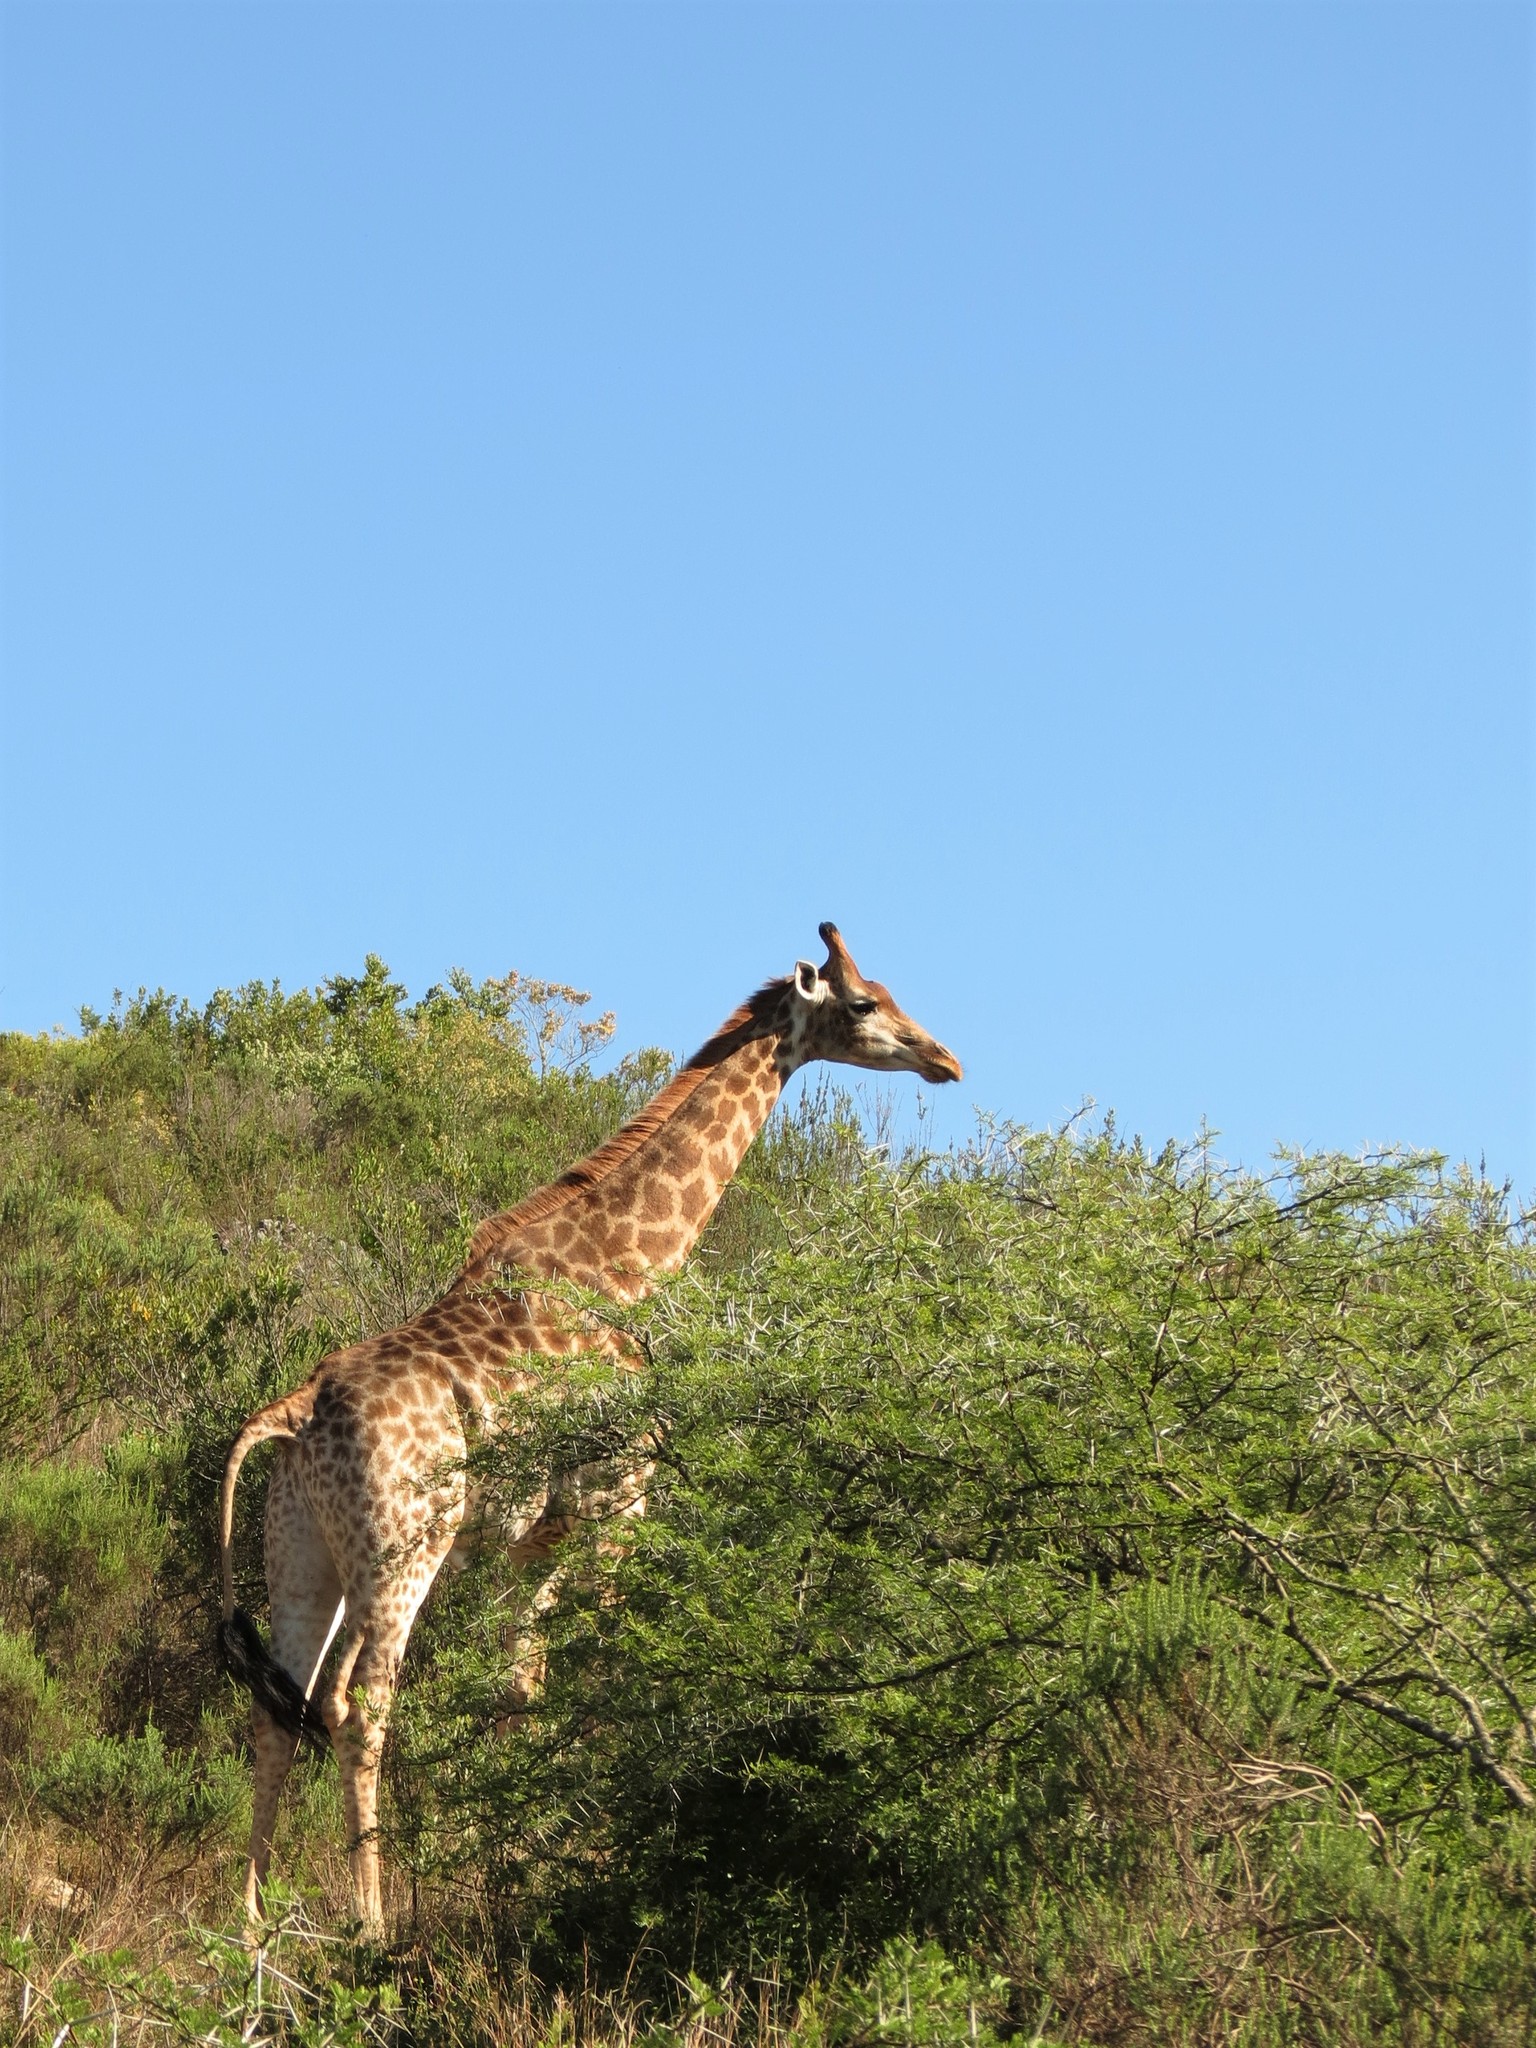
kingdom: Animalia
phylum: Chordata
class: Mammalia
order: Artiodactyla
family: Giraffidae
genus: Giraffa
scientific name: Giraffa giraffa
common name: Southern giraffe
